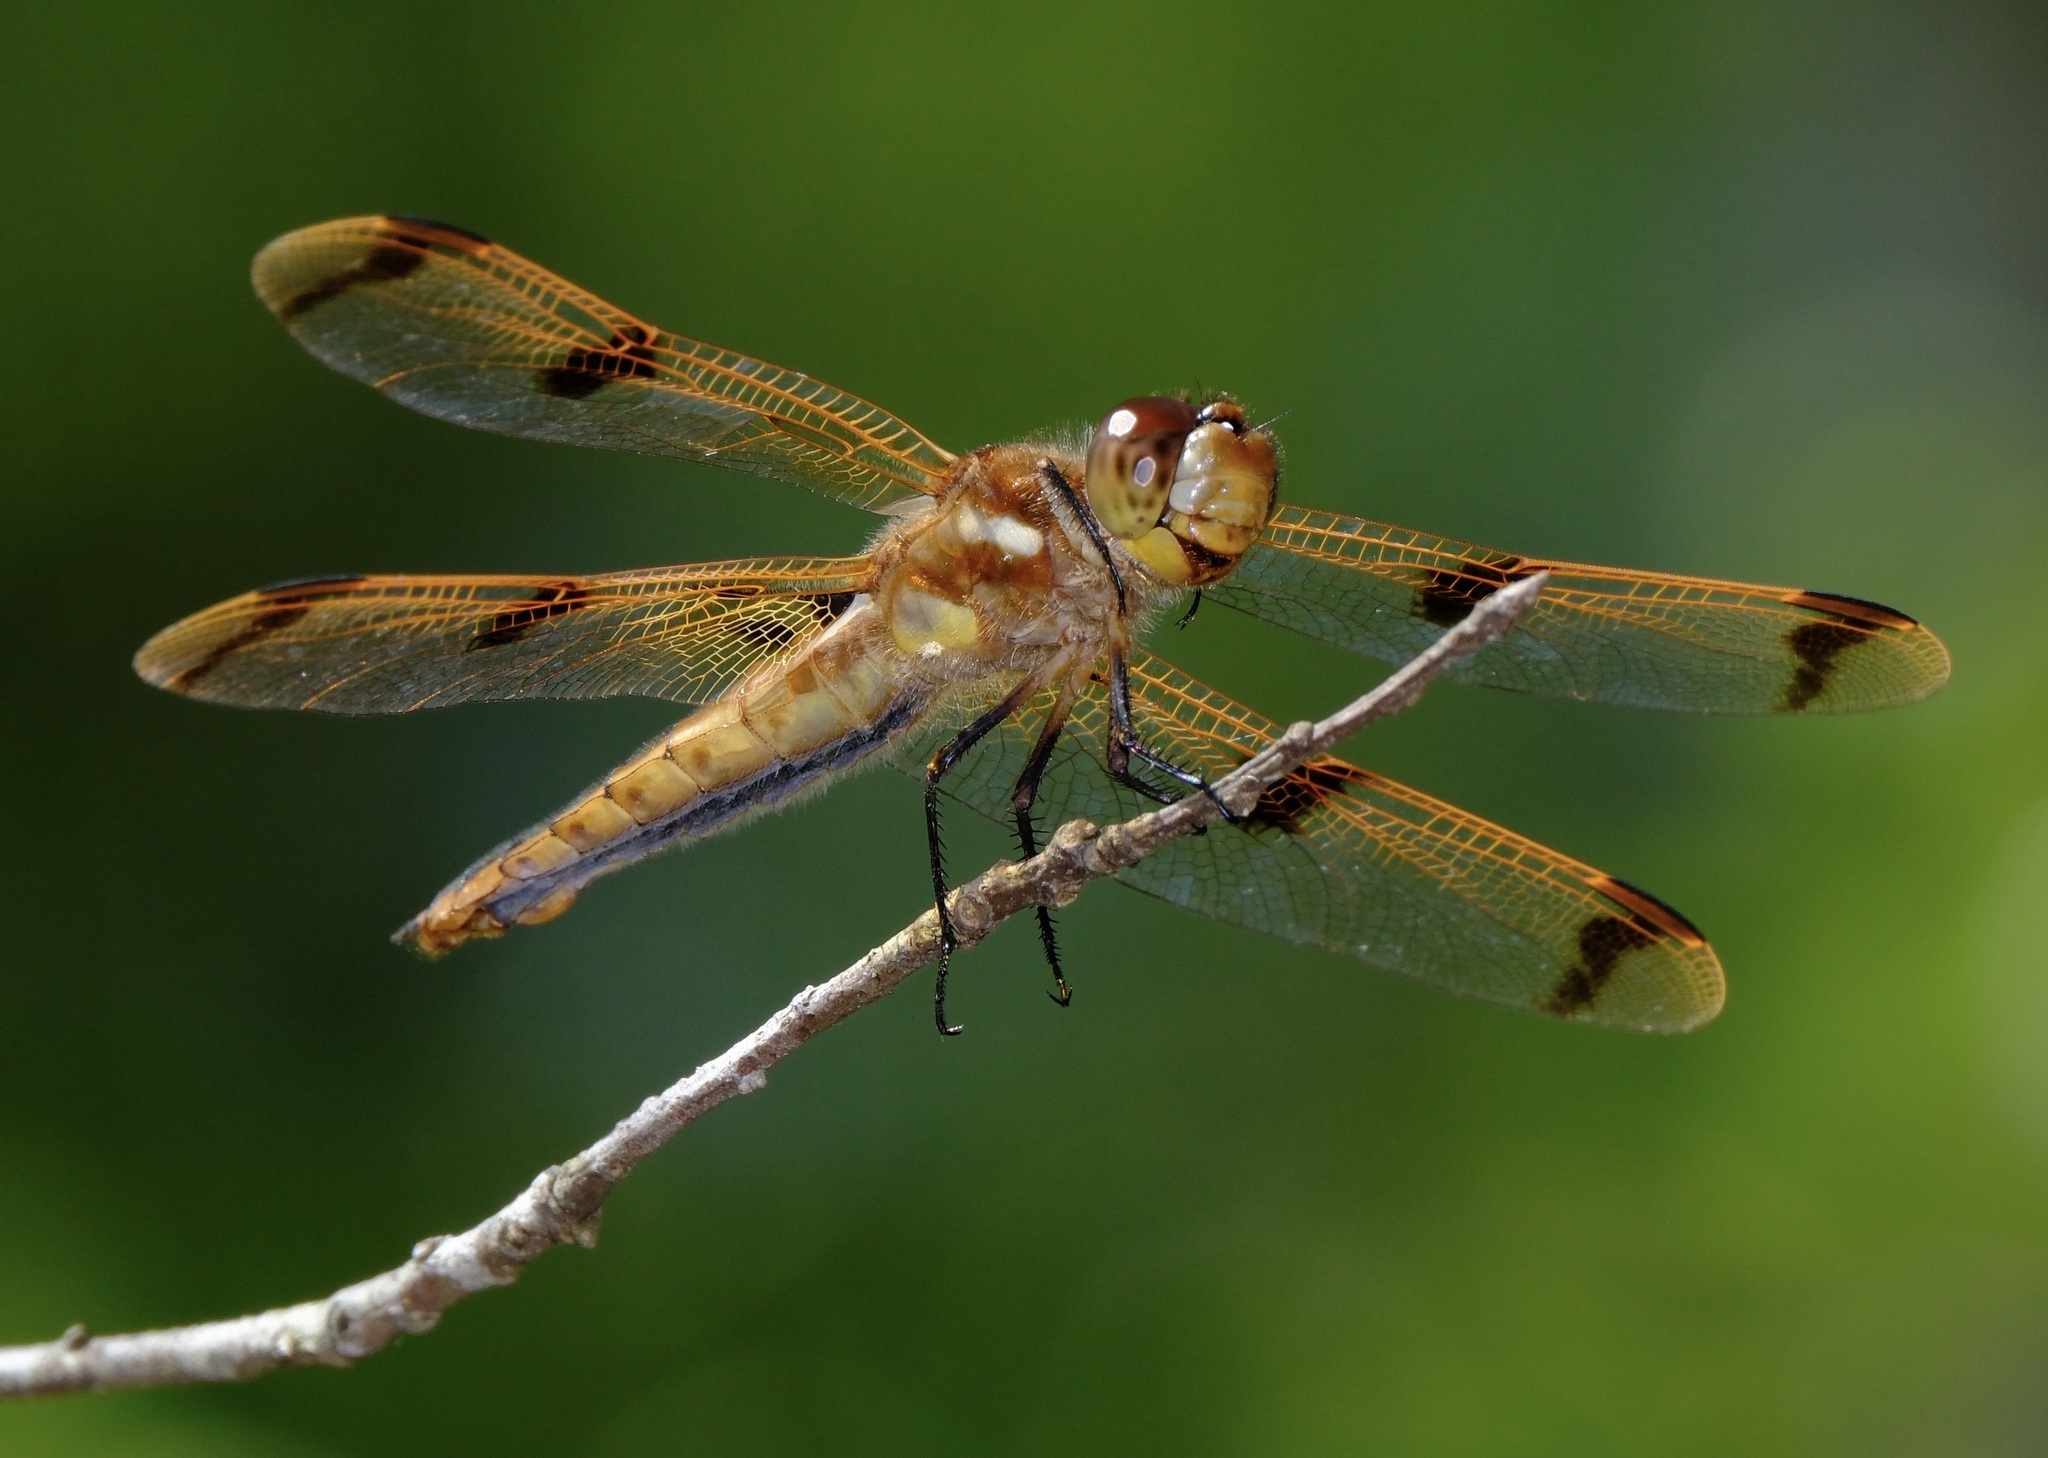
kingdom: Animalia
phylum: Arthropoda
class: Insecta
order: Odonata
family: Libellulidae
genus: Libellula
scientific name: Libellula semifasciata
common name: Painted skimmer
